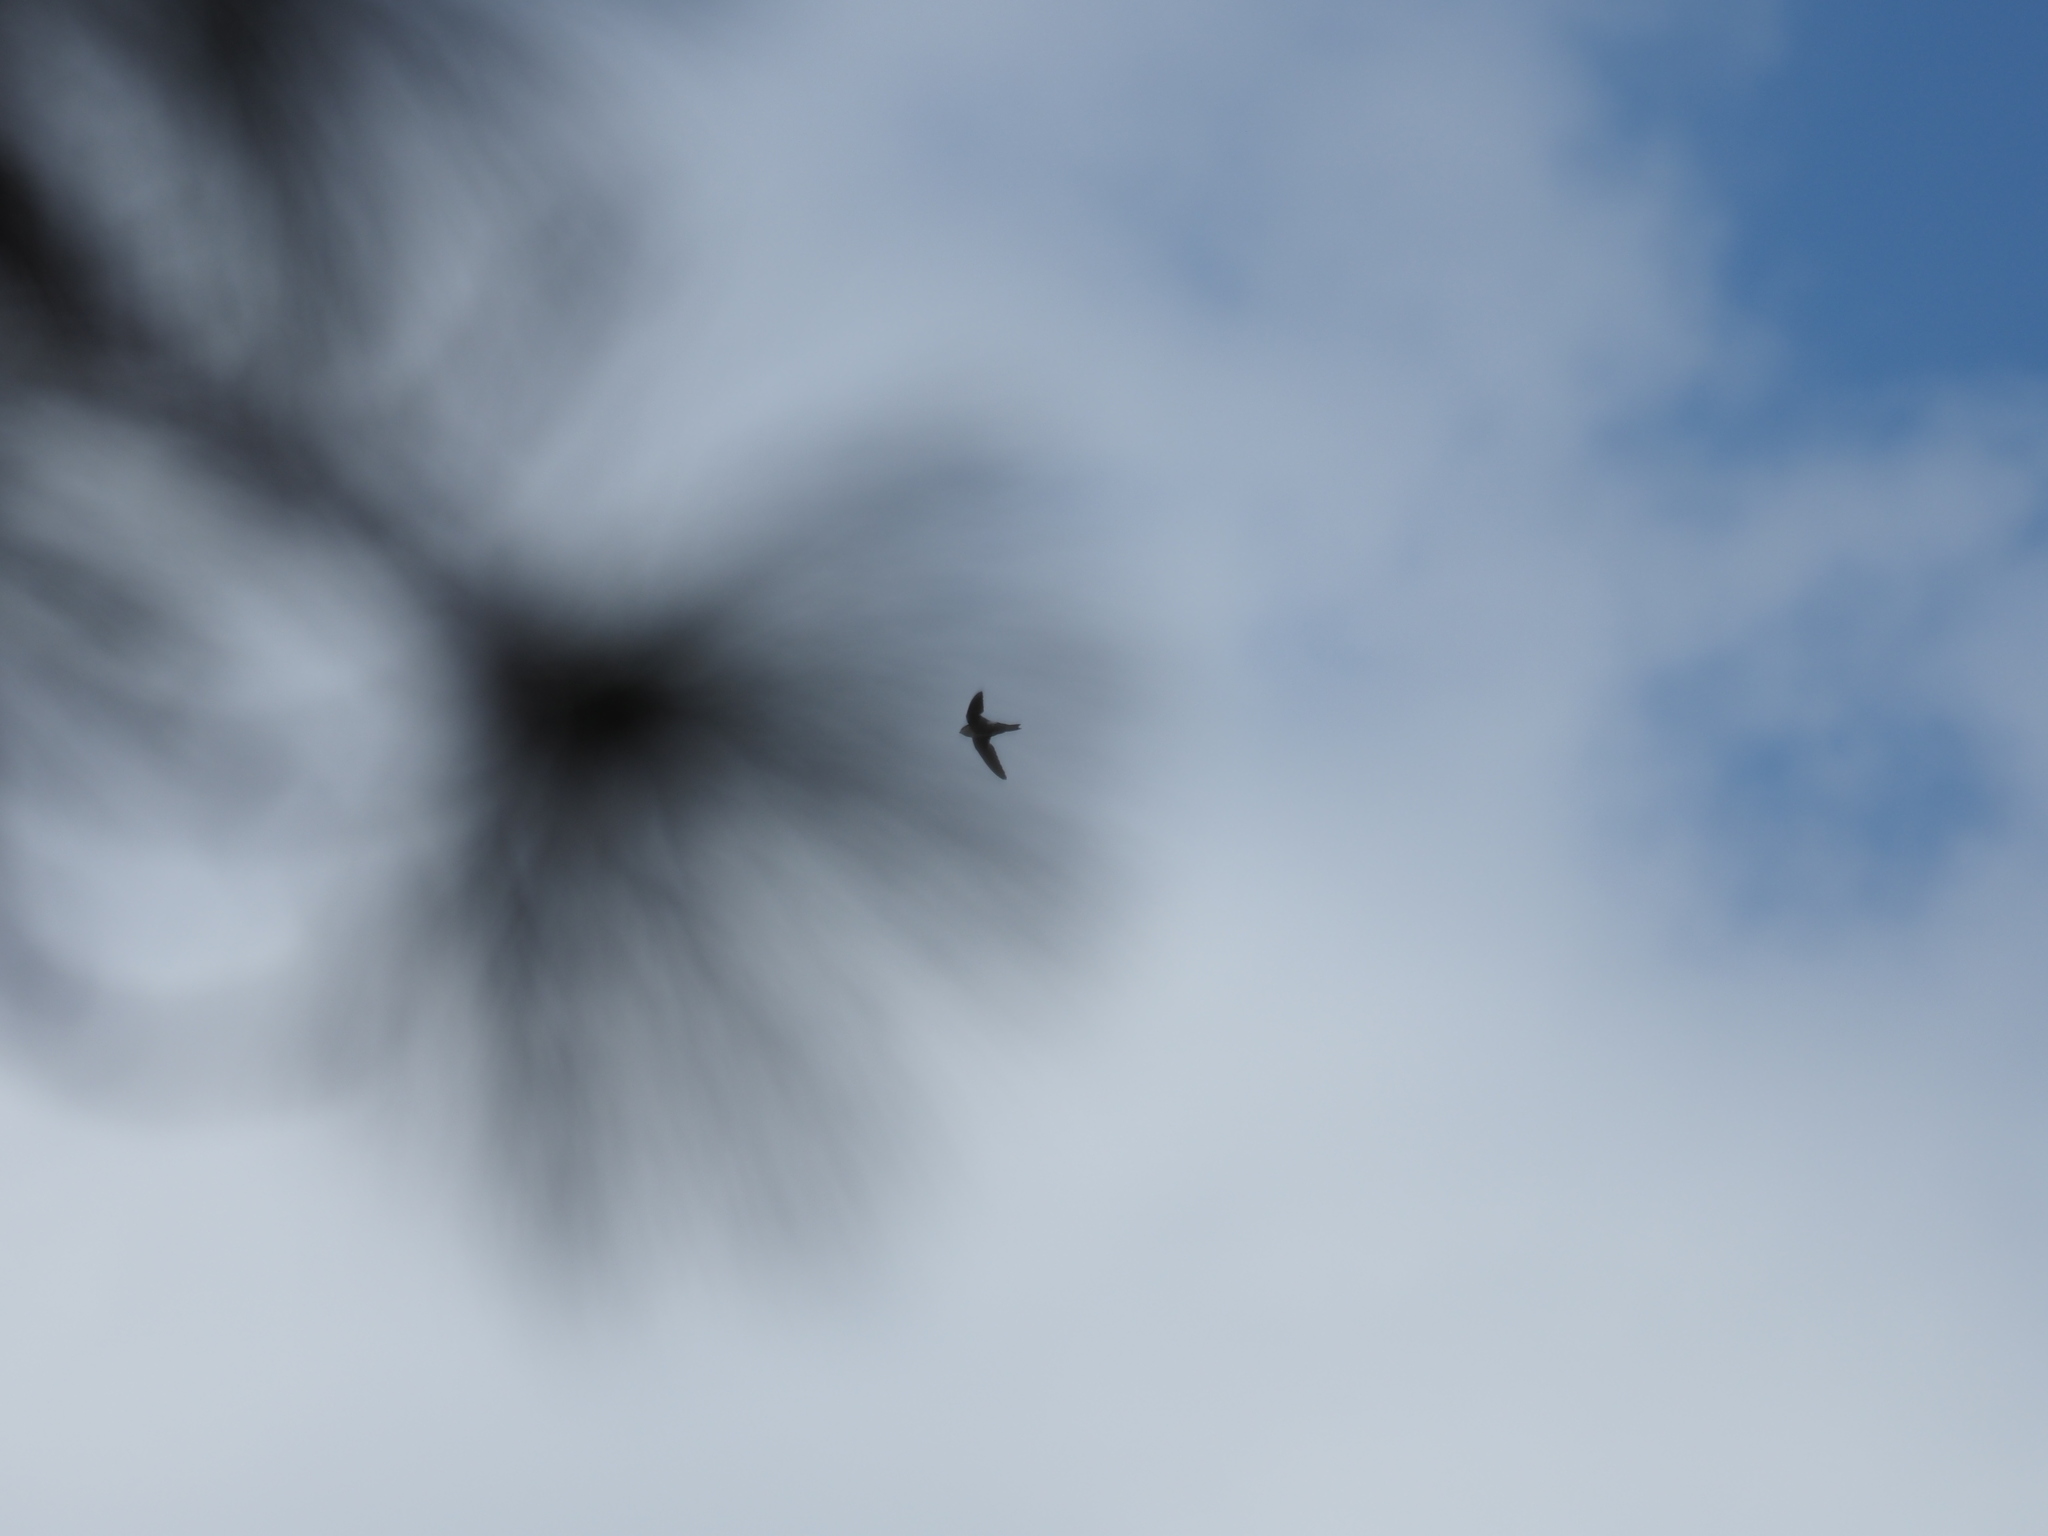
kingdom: Animalia
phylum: Chordata
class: Aves
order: Apodiformes
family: Apodidae
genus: Aeronautes
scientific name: Aeronautes saxatalis
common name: White-throated swift
